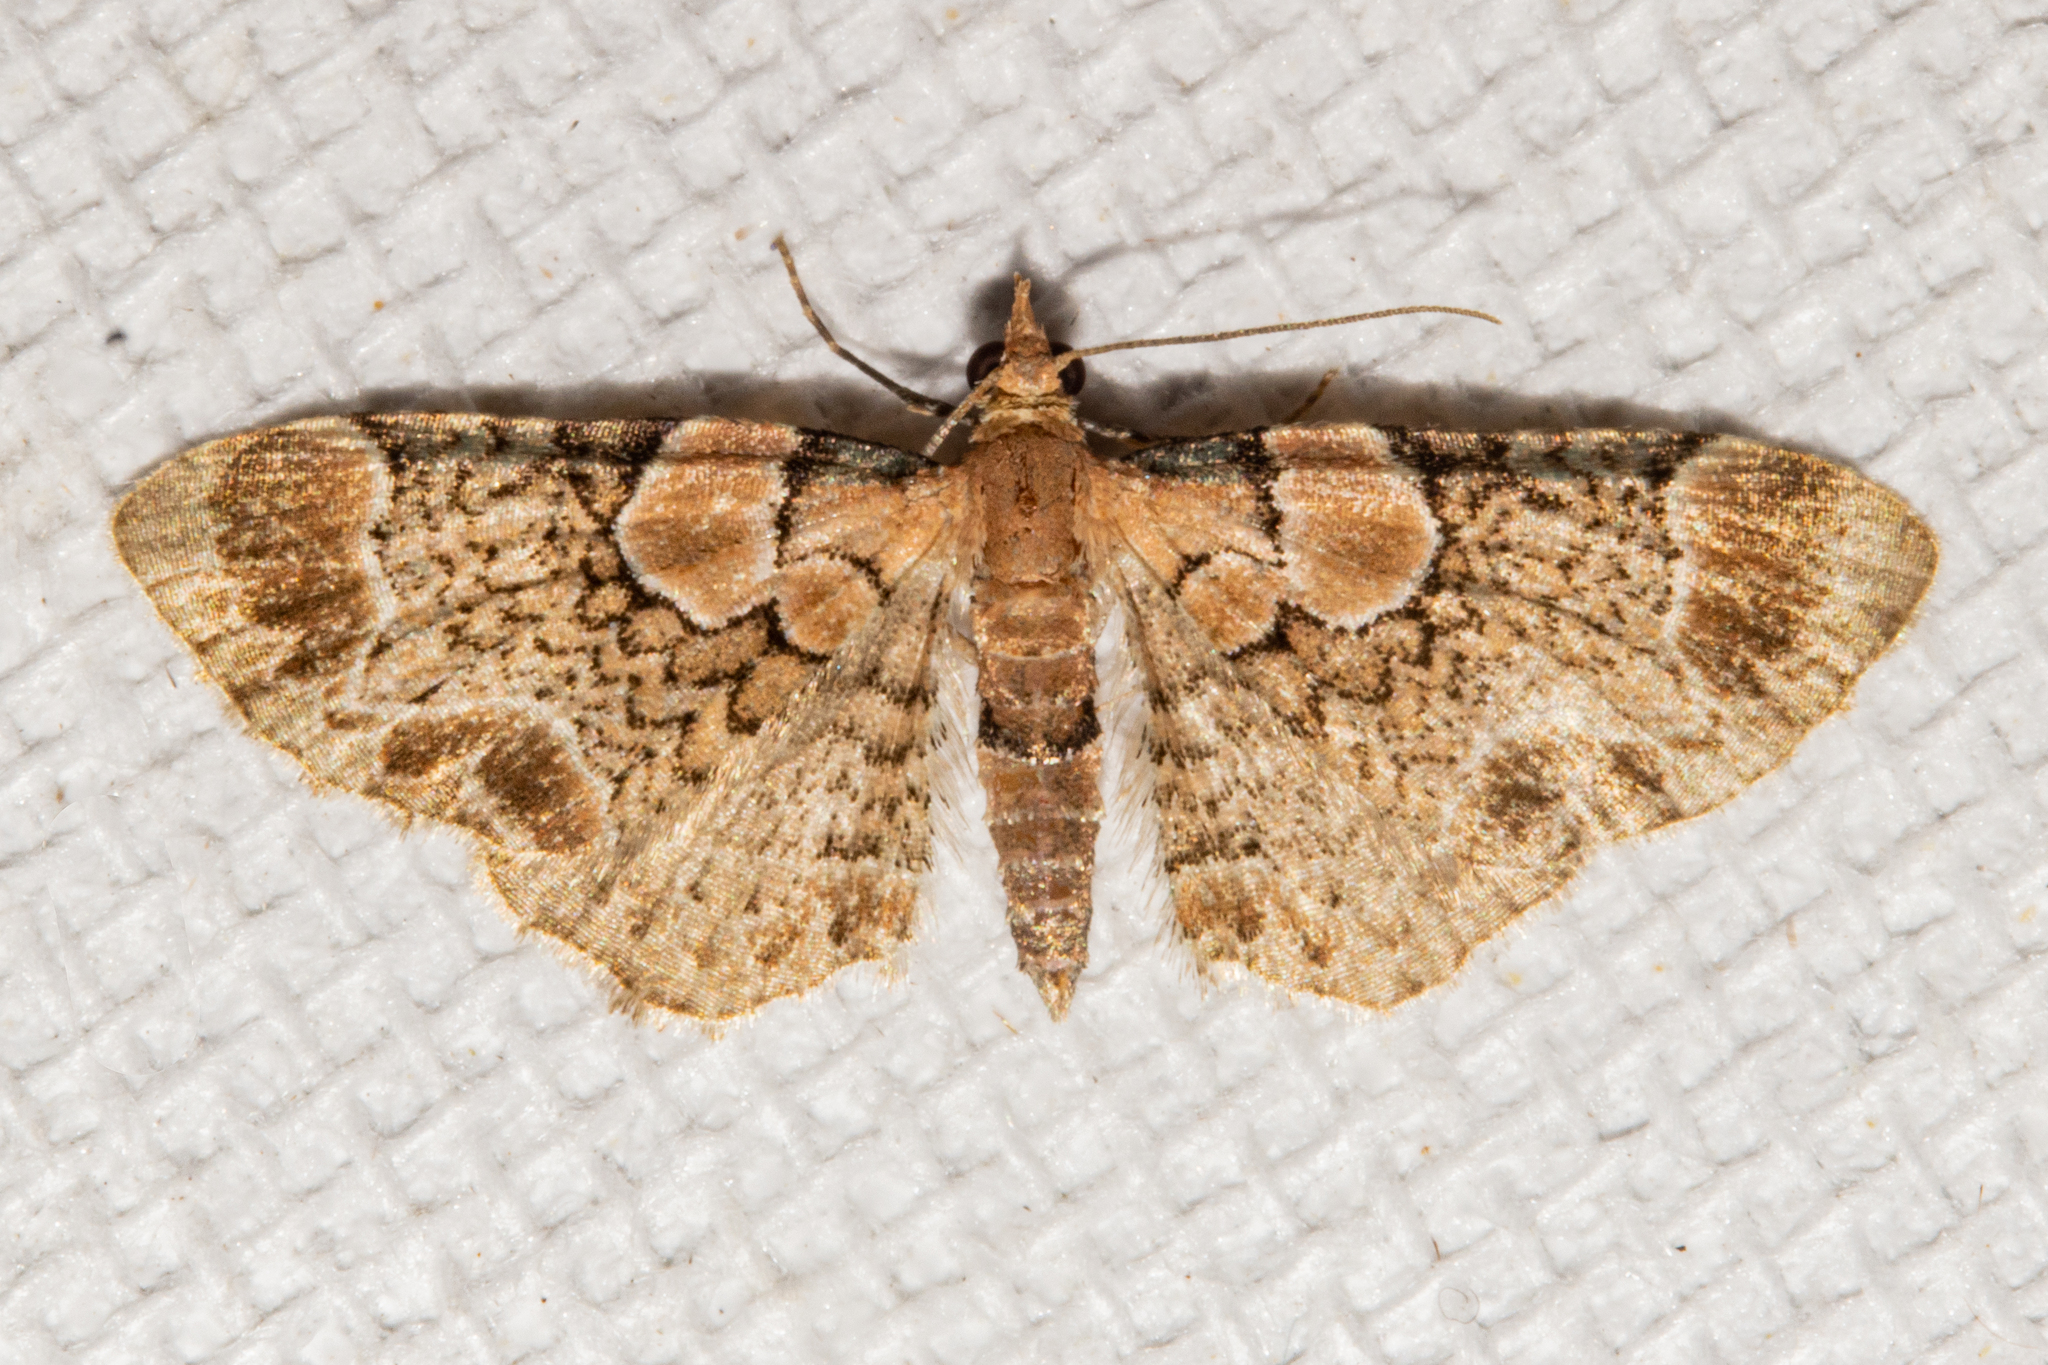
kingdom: Animalia
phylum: Arthropoda
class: Insecta
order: Lepidoptera
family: Geometridae
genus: Chloroclystis
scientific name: Chloroclystis
